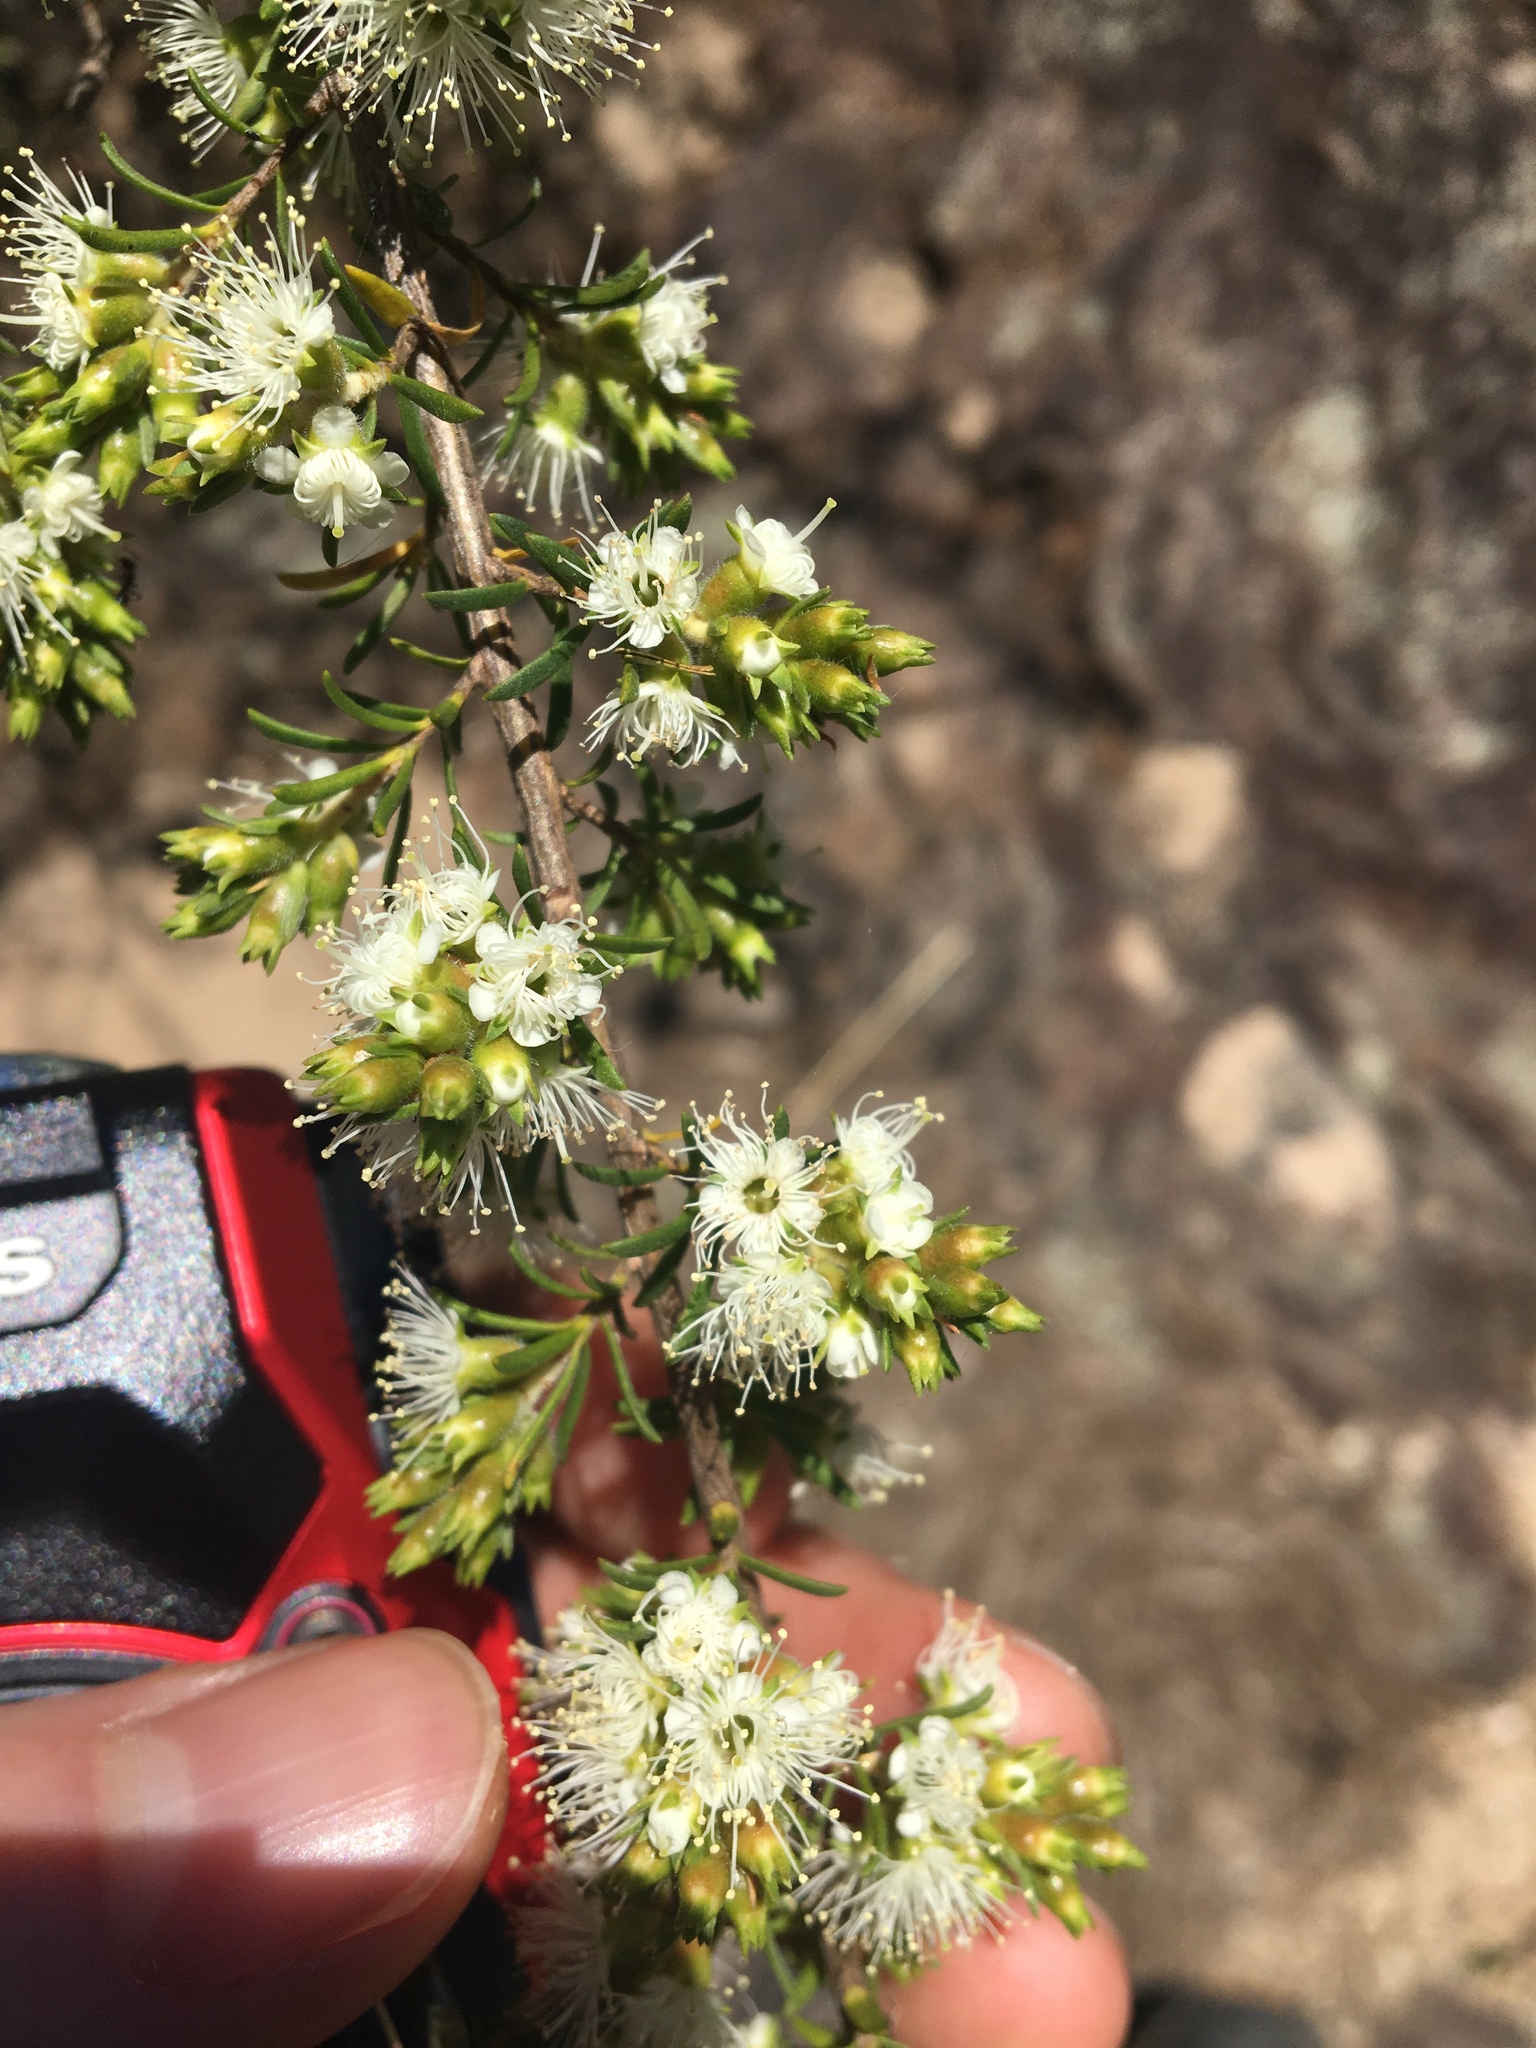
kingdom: Plantae
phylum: Tracheophyta
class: Magnoliopsida
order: Myrtales
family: Myrtaceae
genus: Kunzea
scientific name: Kunzea ambigua
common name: Tickbush
